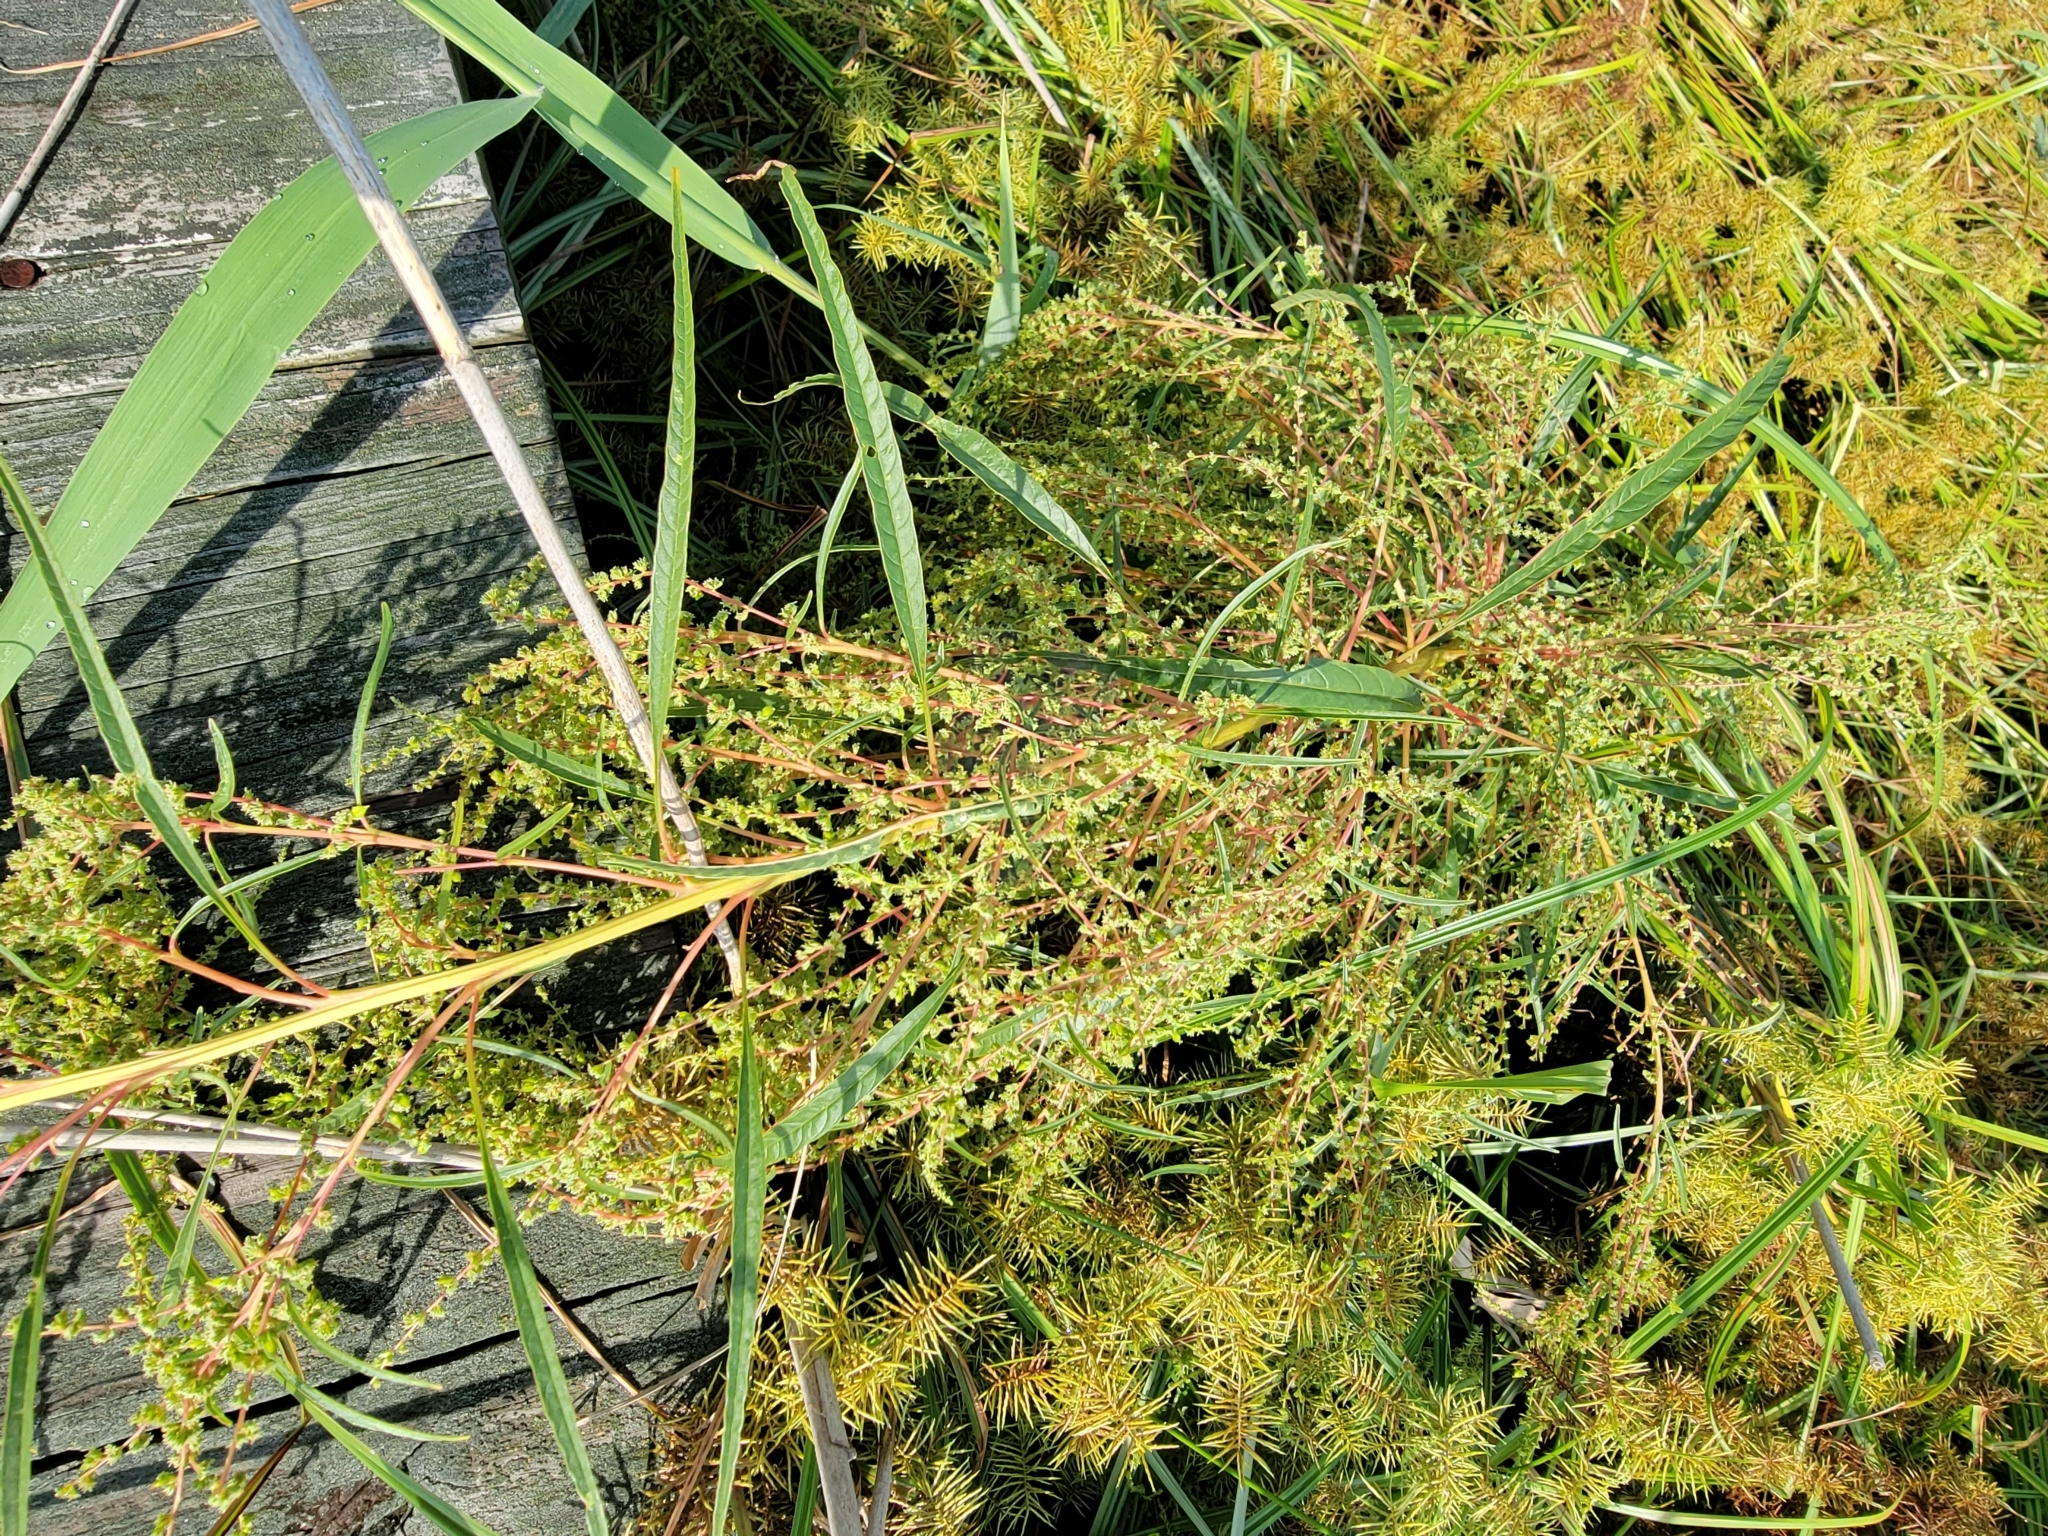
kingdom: Plantae
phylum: Tracheophyta
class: Magnoliopsida
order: Caryophyllales
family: Amaranthaceae
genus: Amaranthus
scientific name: Amaranthus cannabinus
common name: Salt-marsh water-hemp
